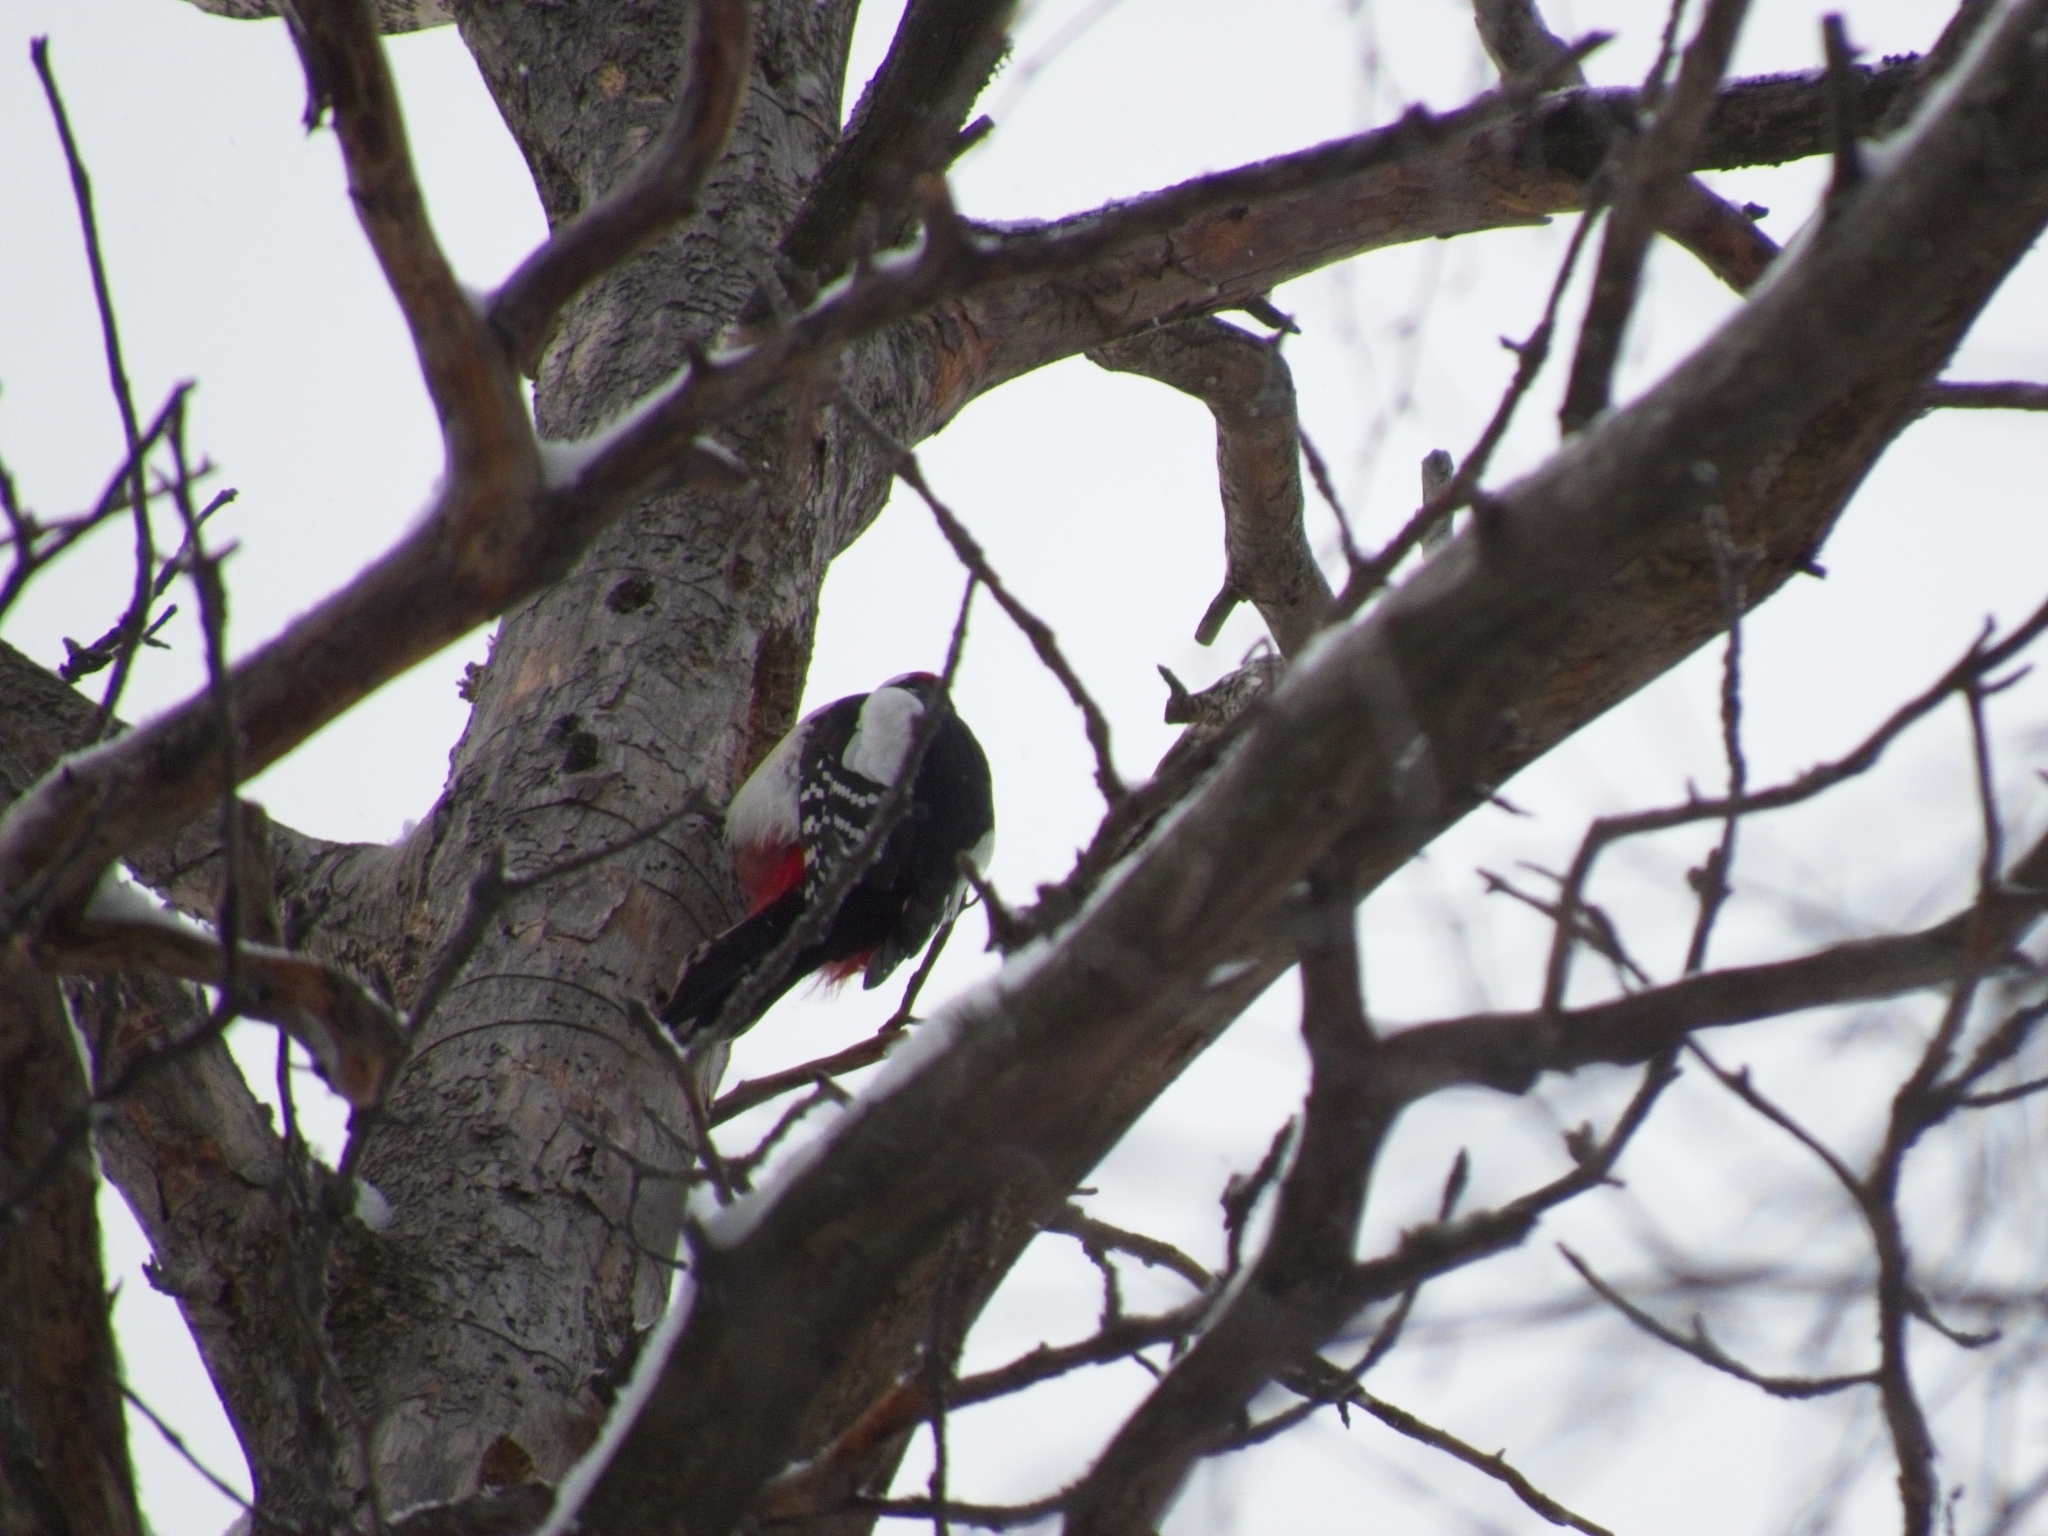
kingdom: Animalia
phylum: Chordata
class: Aves
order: Piciformes
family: Picidae
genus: Dendrocopos
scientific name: Dendrocopos major
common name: Great spotted woodpecker
